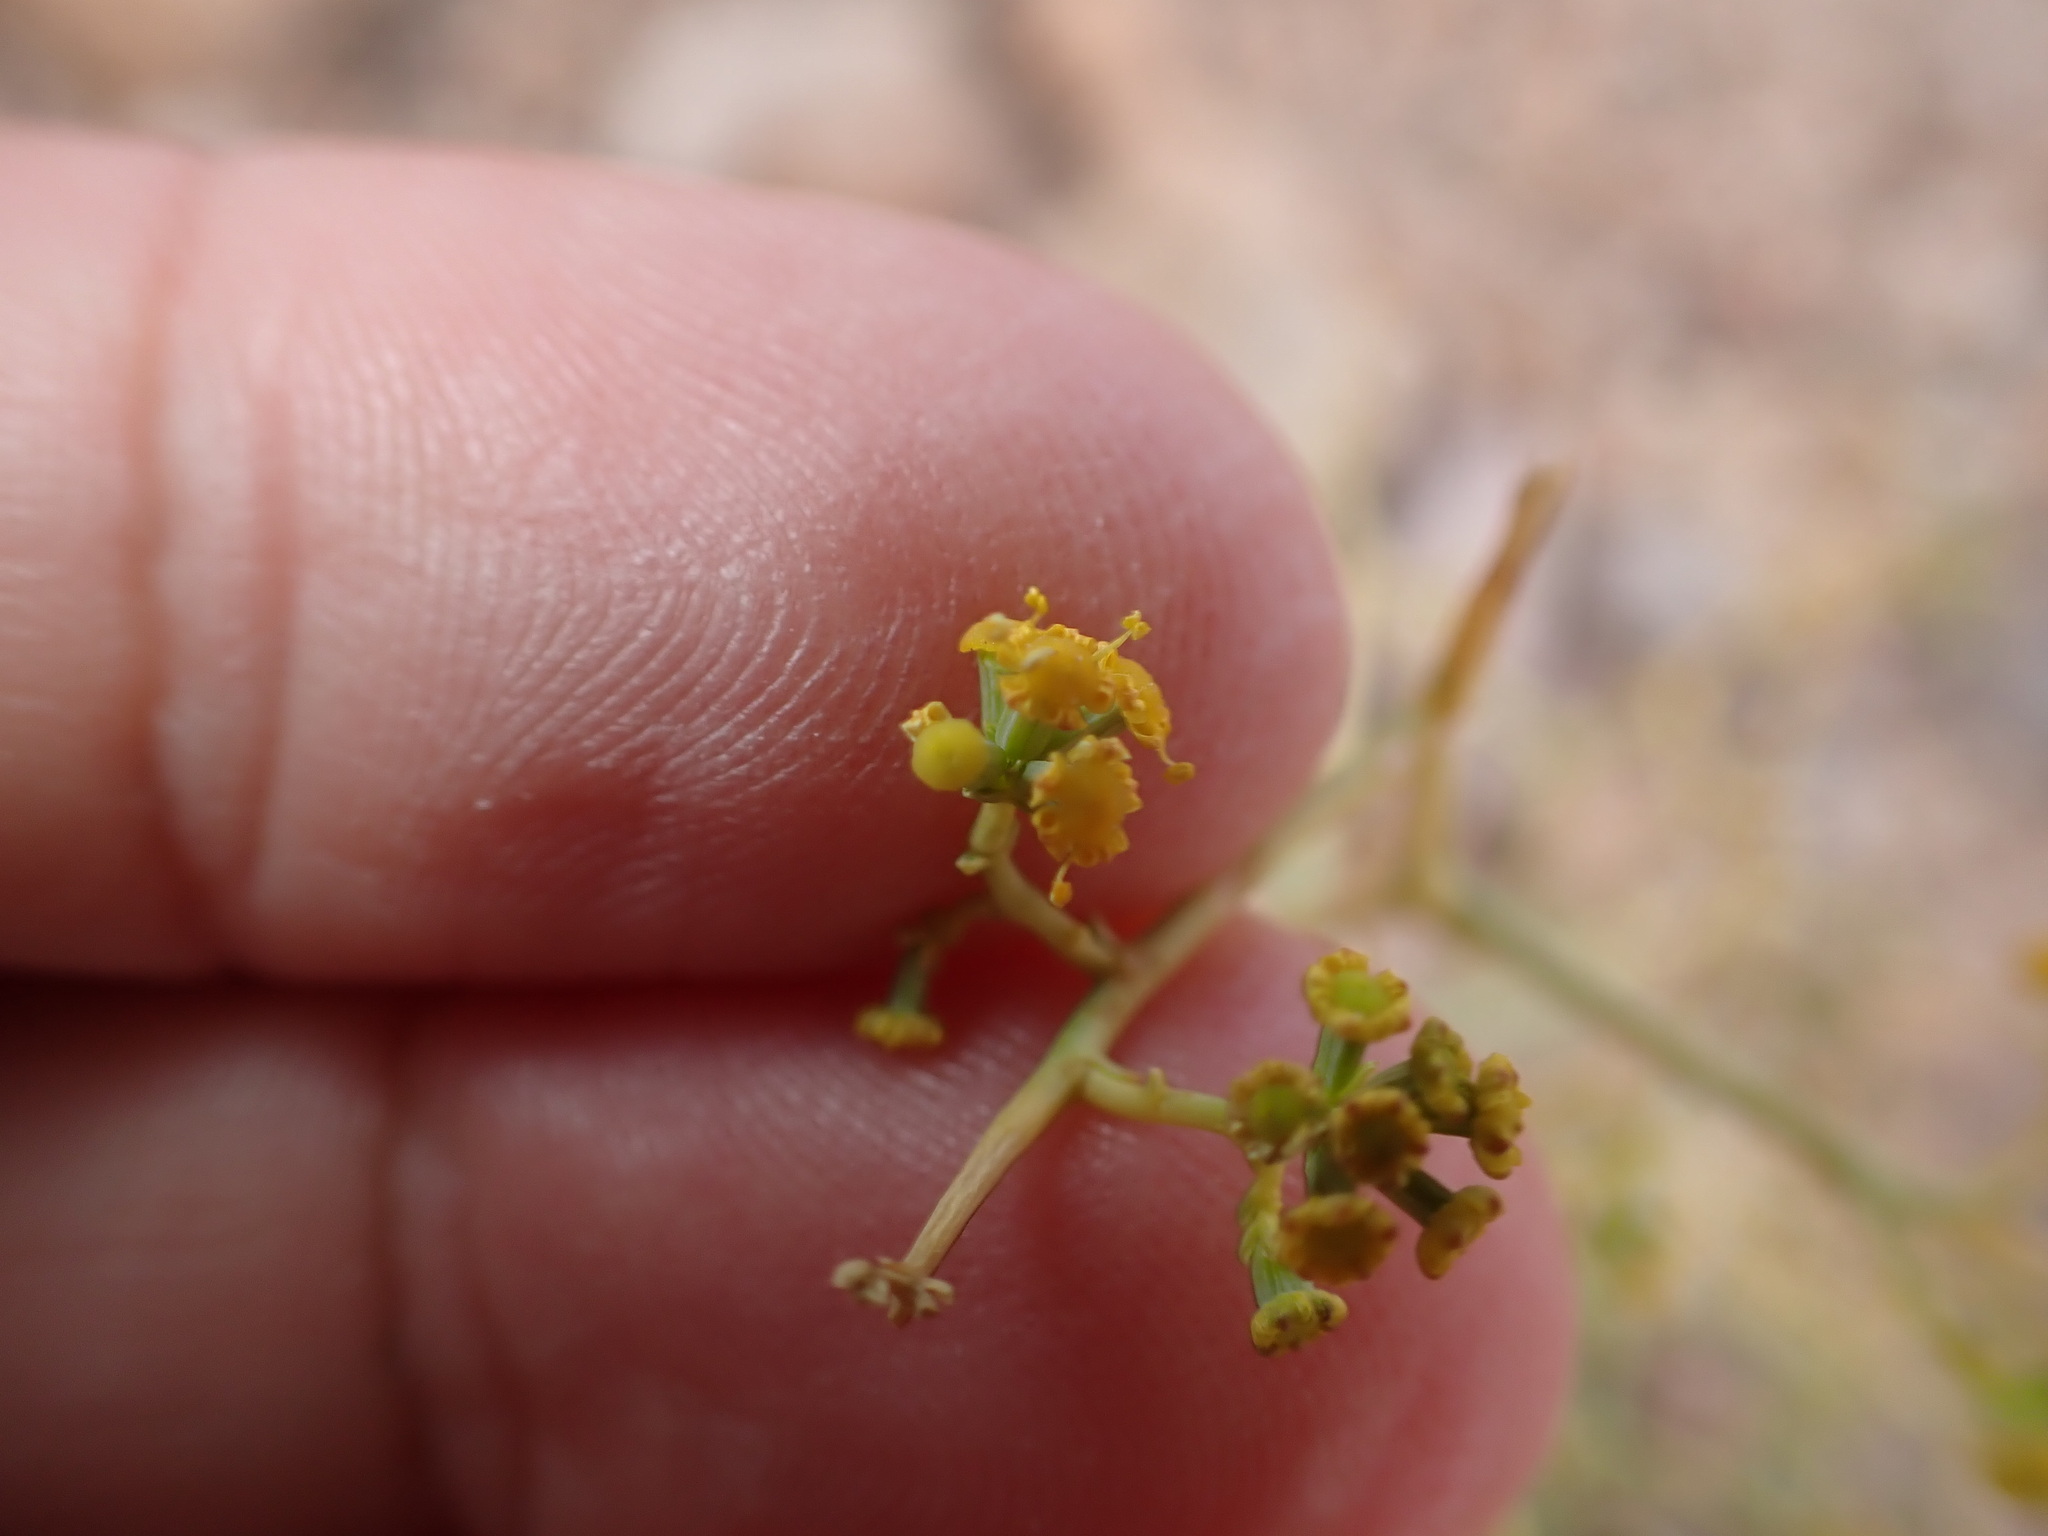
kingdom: Plantae
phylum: Tracheophyta
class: Magnoliopsida
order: Apiales
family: Apiaceae
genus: Bupleurum
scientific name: Bupleurum fruticescens
